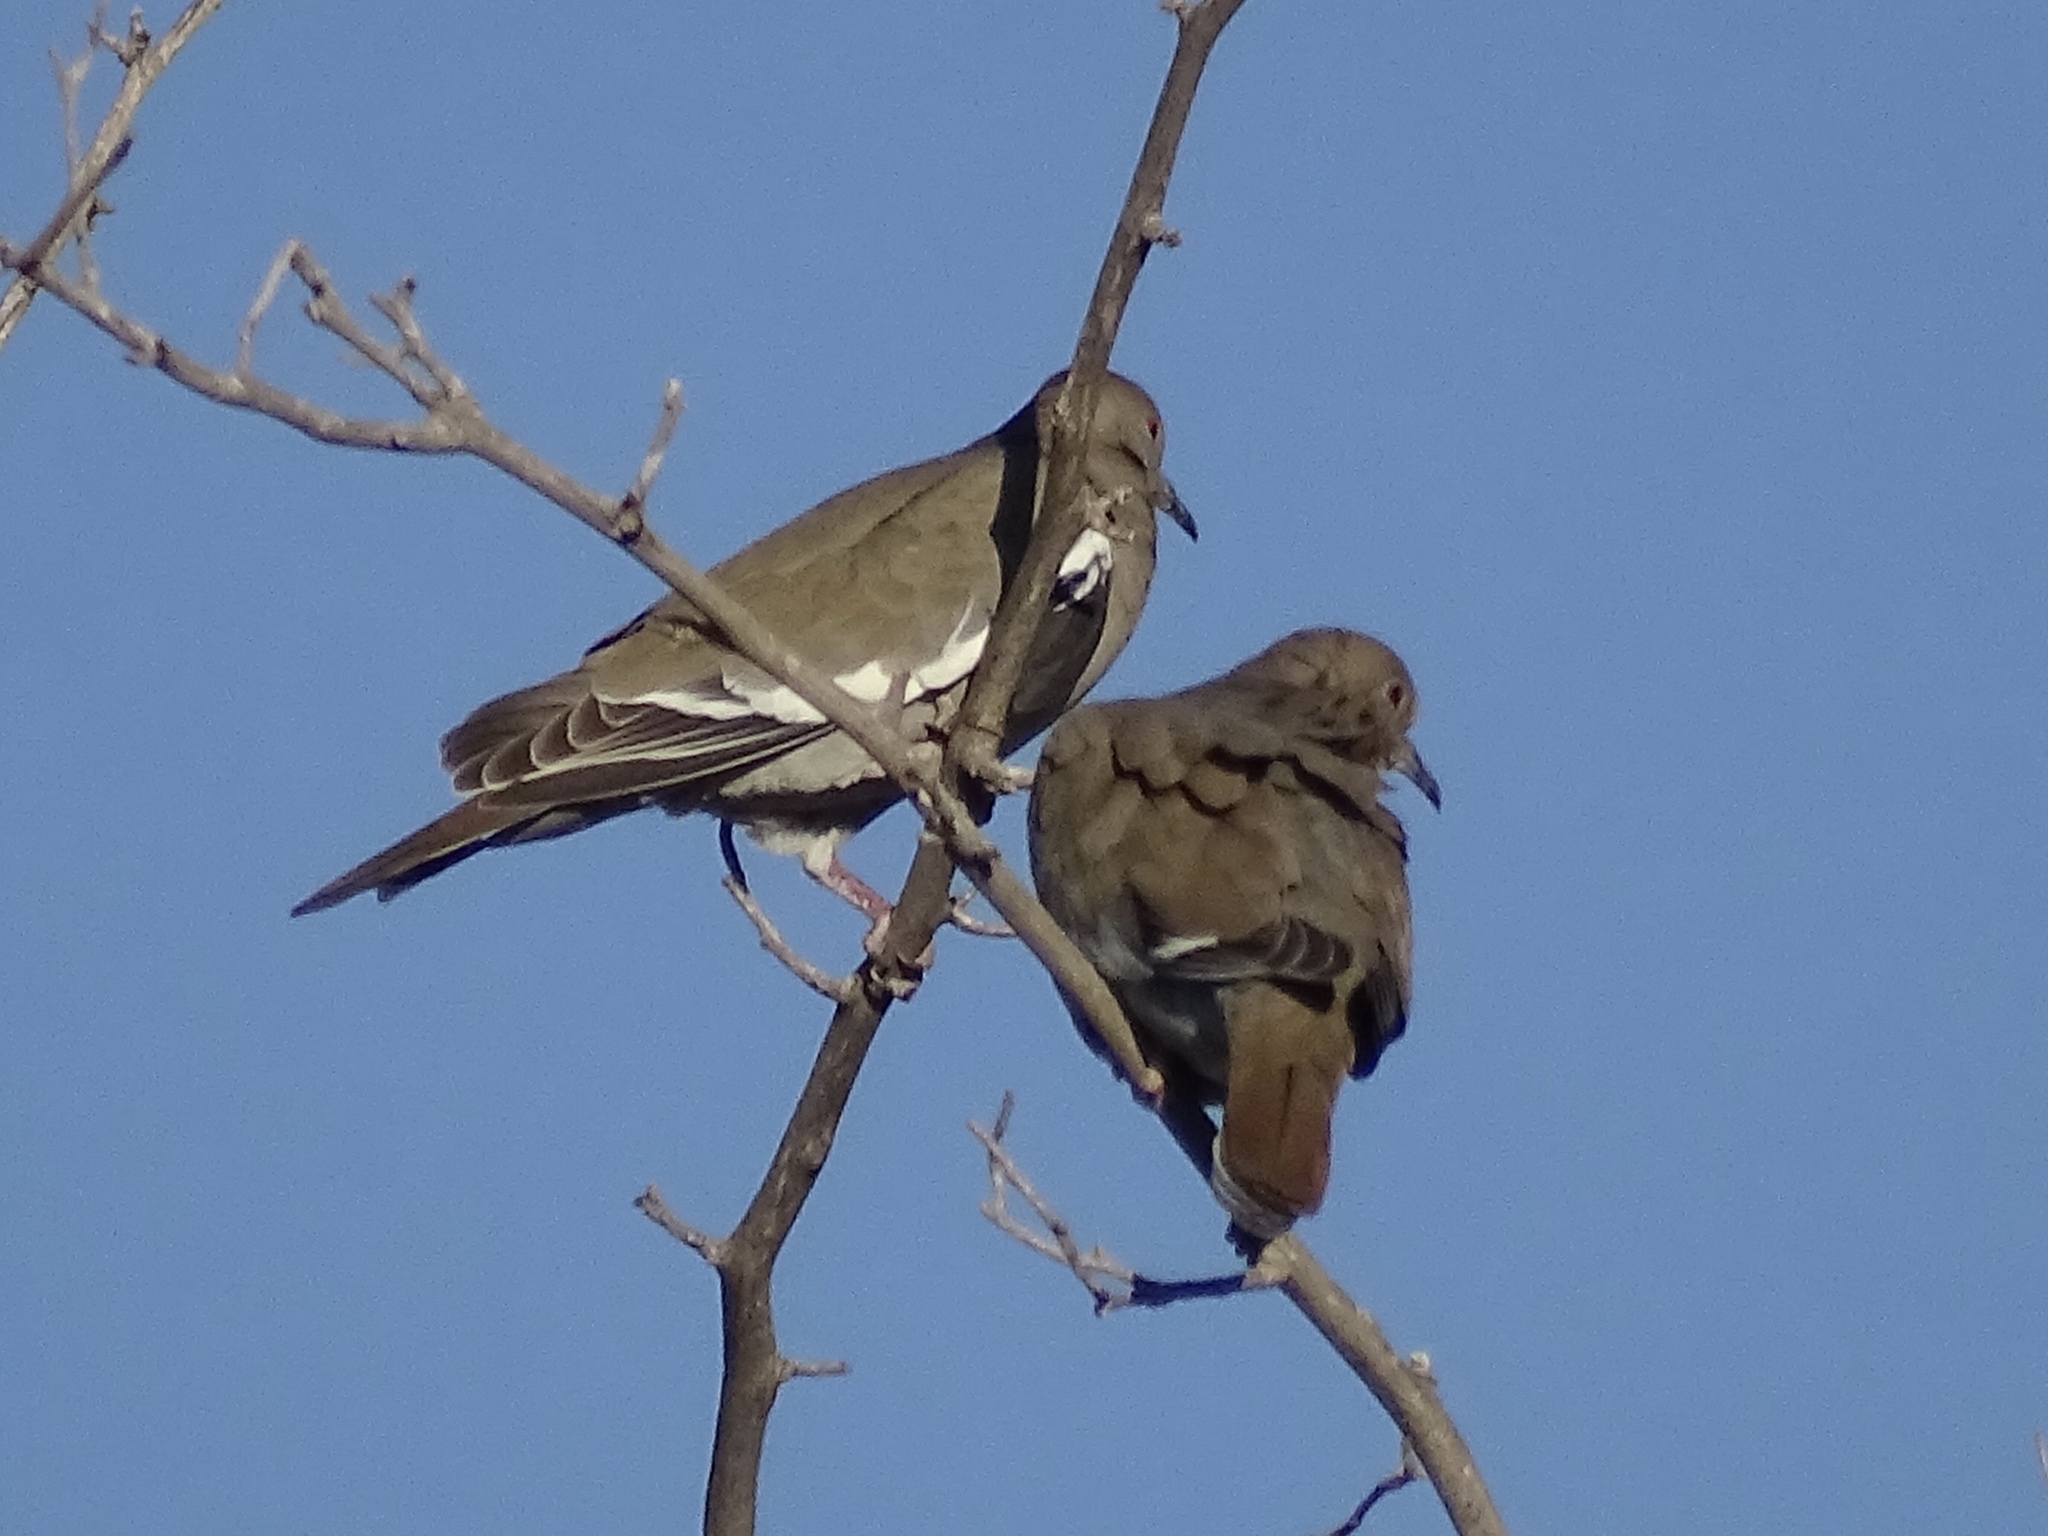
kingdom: Animalia
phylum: Chordata
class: Aves
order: Columbiformes
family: Columbidae
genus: Zenaida
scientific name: Zenaida asiatica
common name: White-winged dove
